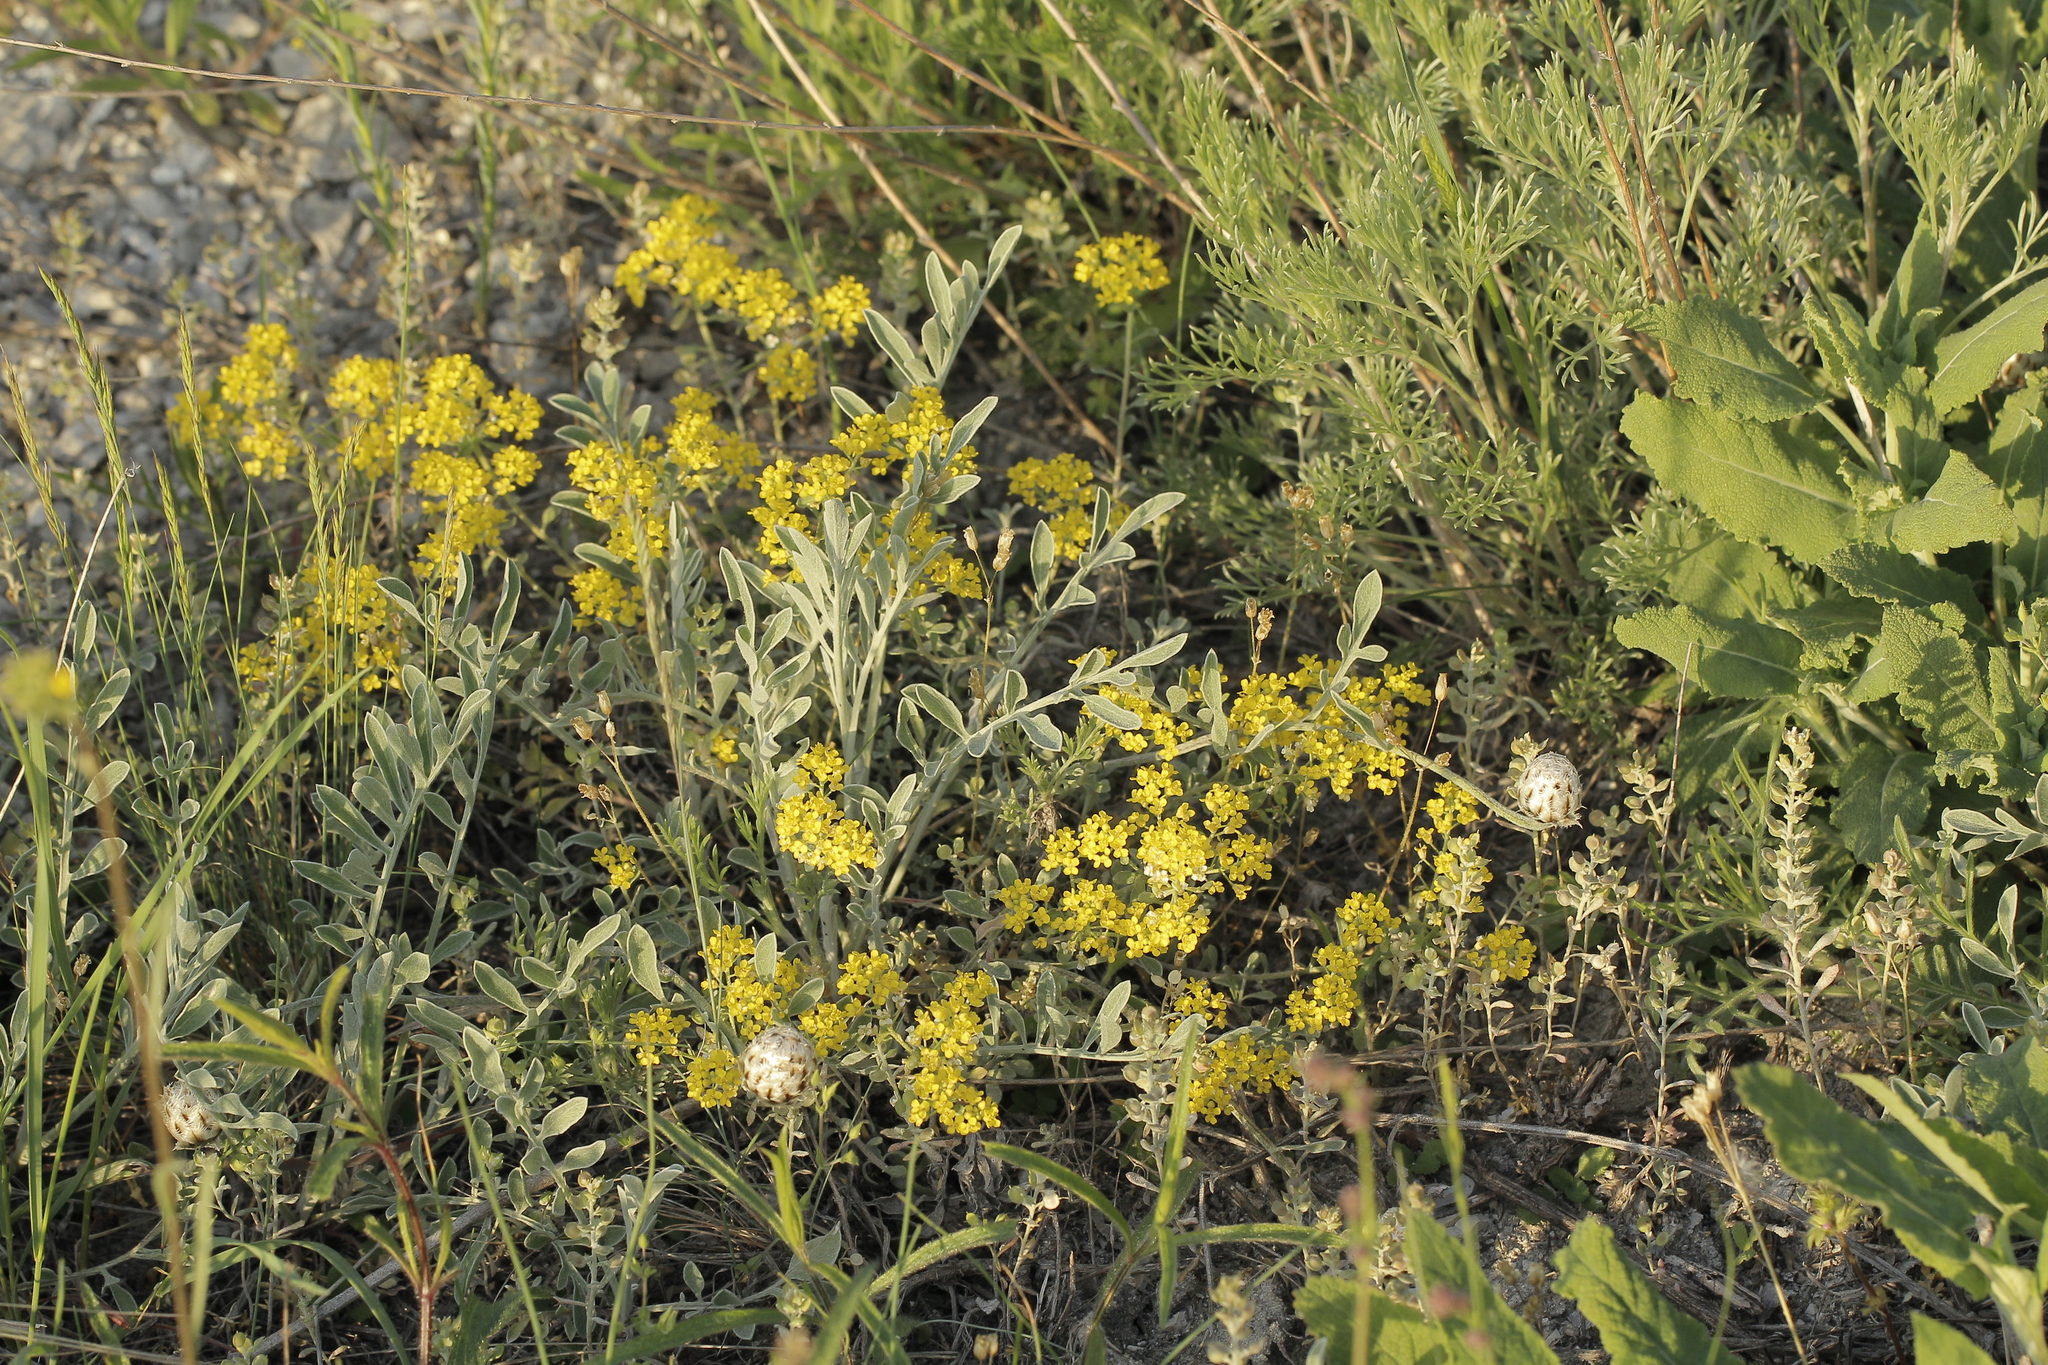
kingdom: Plantae
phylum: Tracheophyta
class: Magnoliopsida
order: Brassicales
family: Brassicaceae
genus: Odontarrhena
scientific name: Odontarrhena tortuosa
